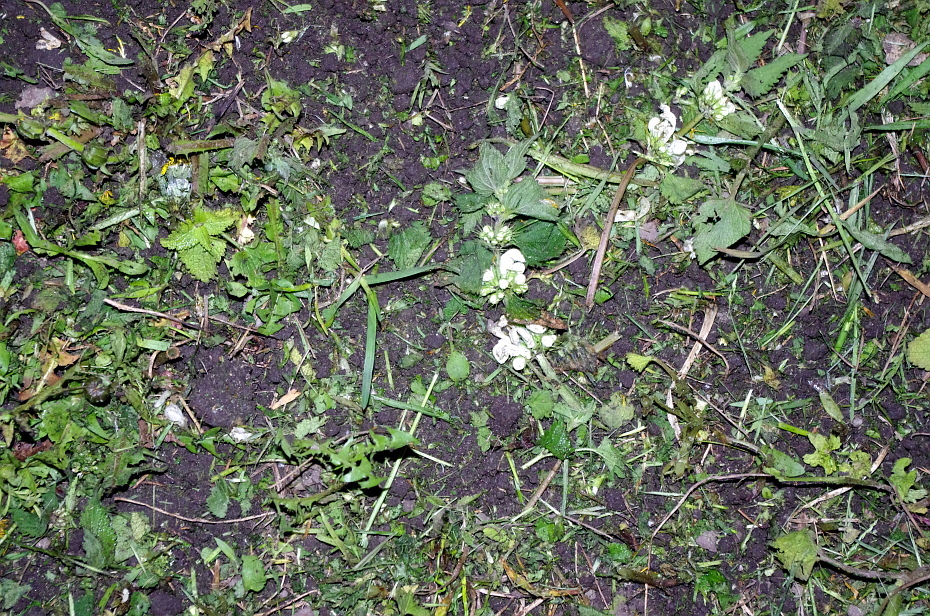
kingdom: Plantae
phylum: Tracheophyta
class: Magnoliopsida
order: Lamiales
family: Lamiaceae
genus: Lamium
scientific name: Lamium album
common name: White dead-nettle
